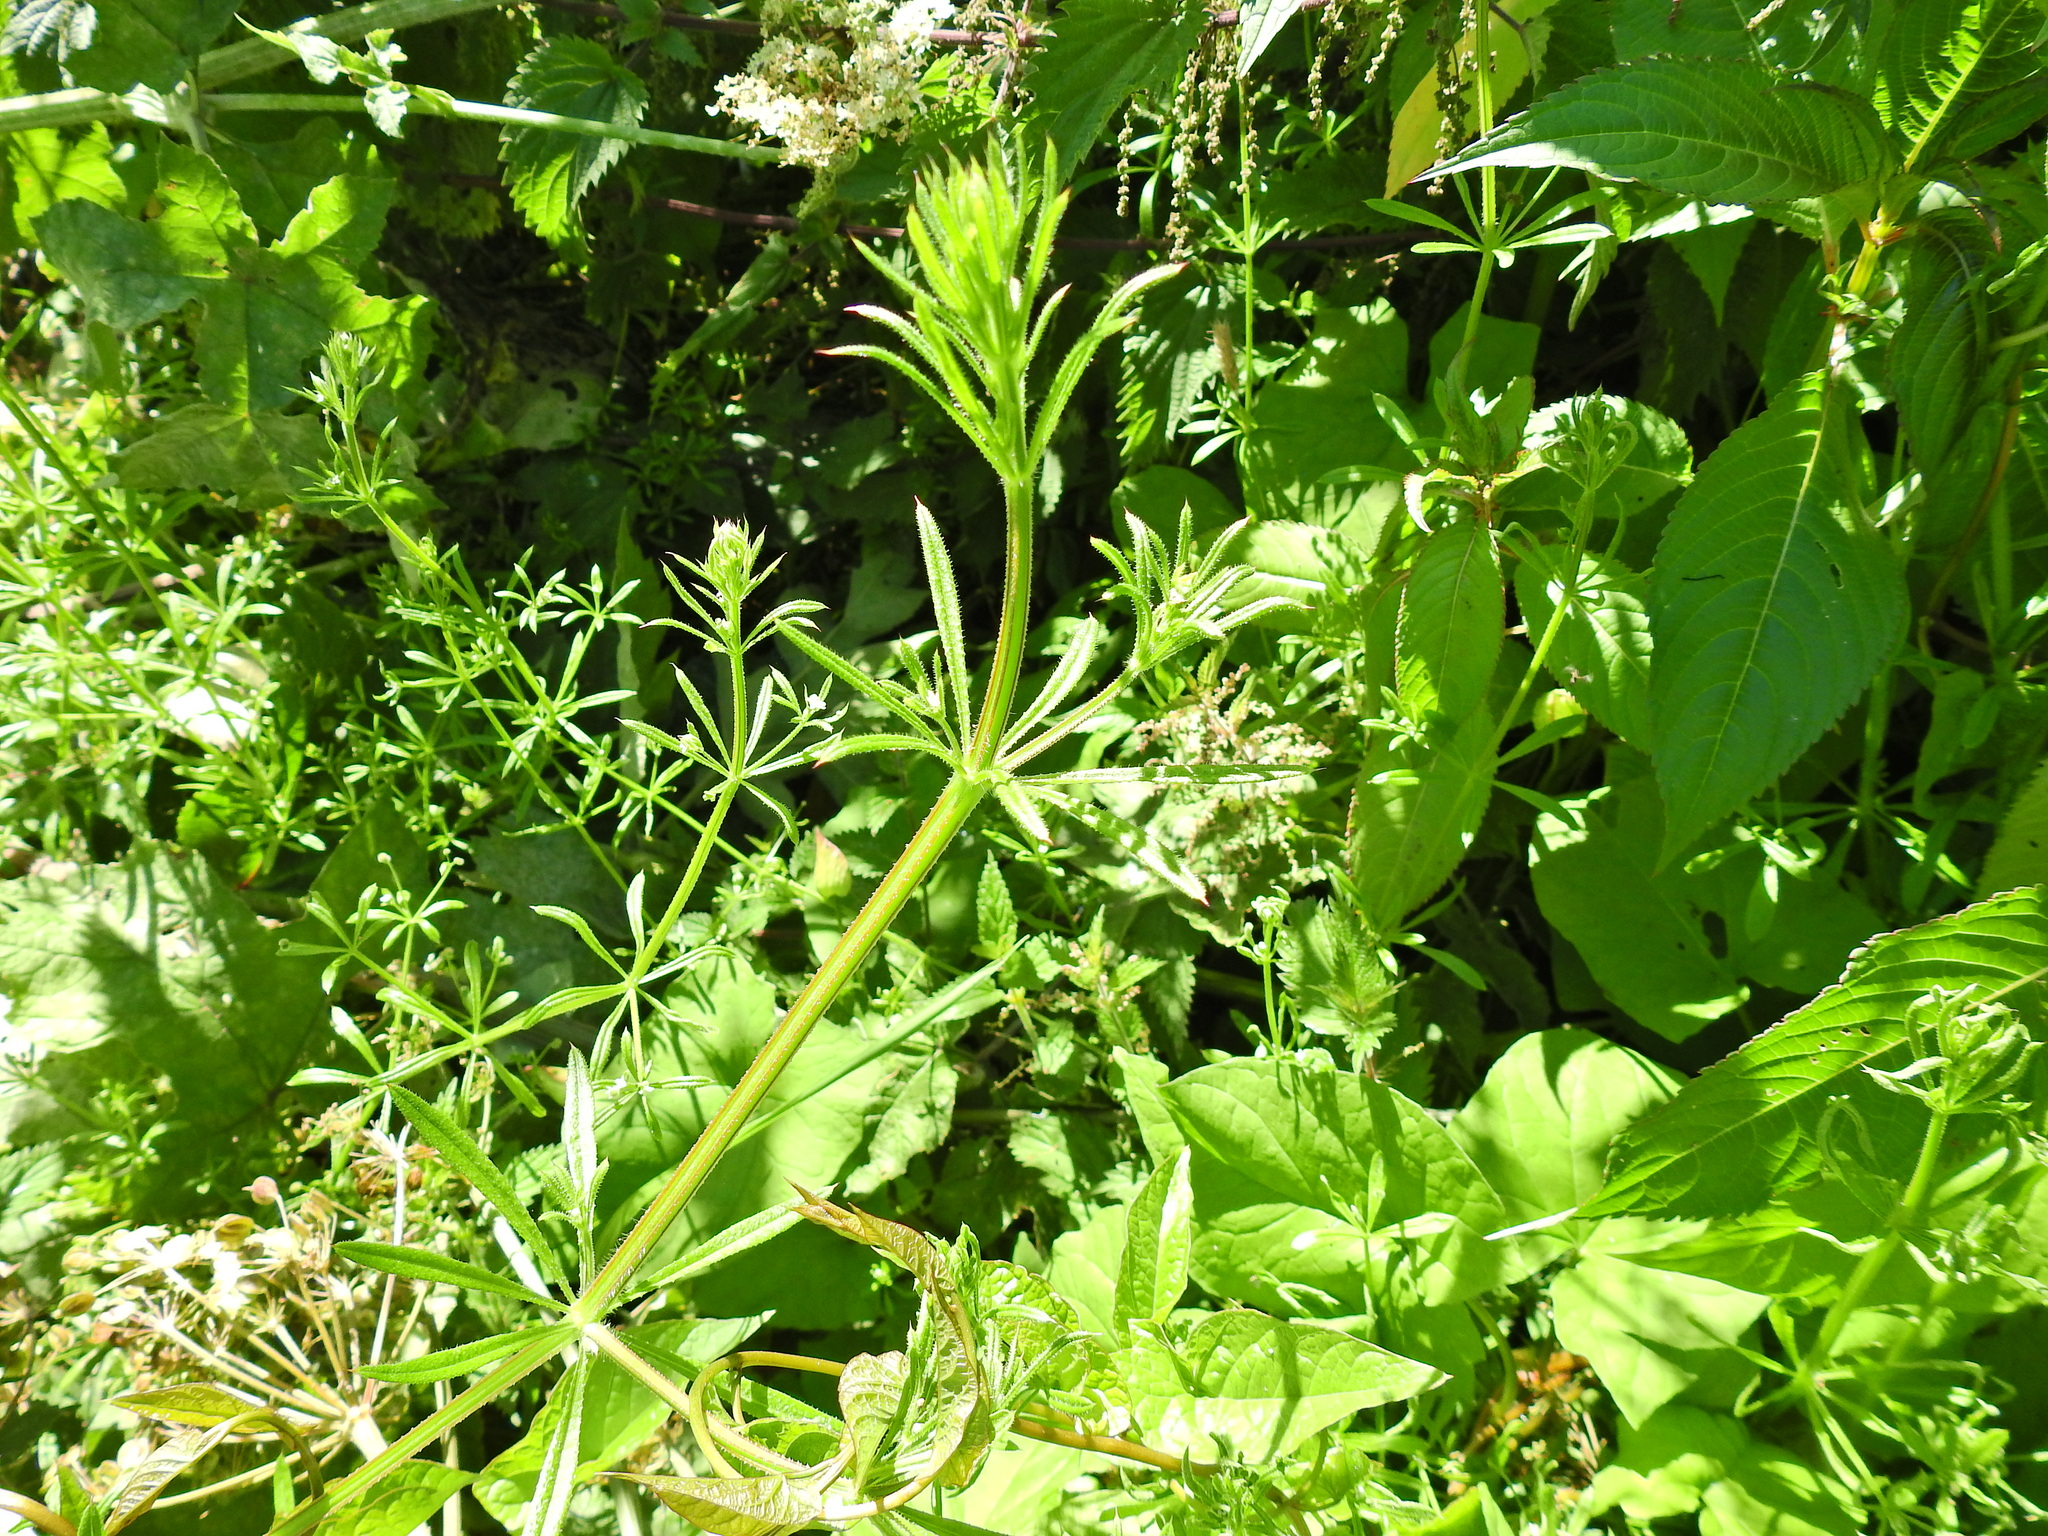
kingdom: Plantae
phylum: Tracheophyta
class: Magnoliopsida
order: Gentianales
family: Rubiaceae
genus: Galium
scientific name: Galium aparine
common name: Cleavers
